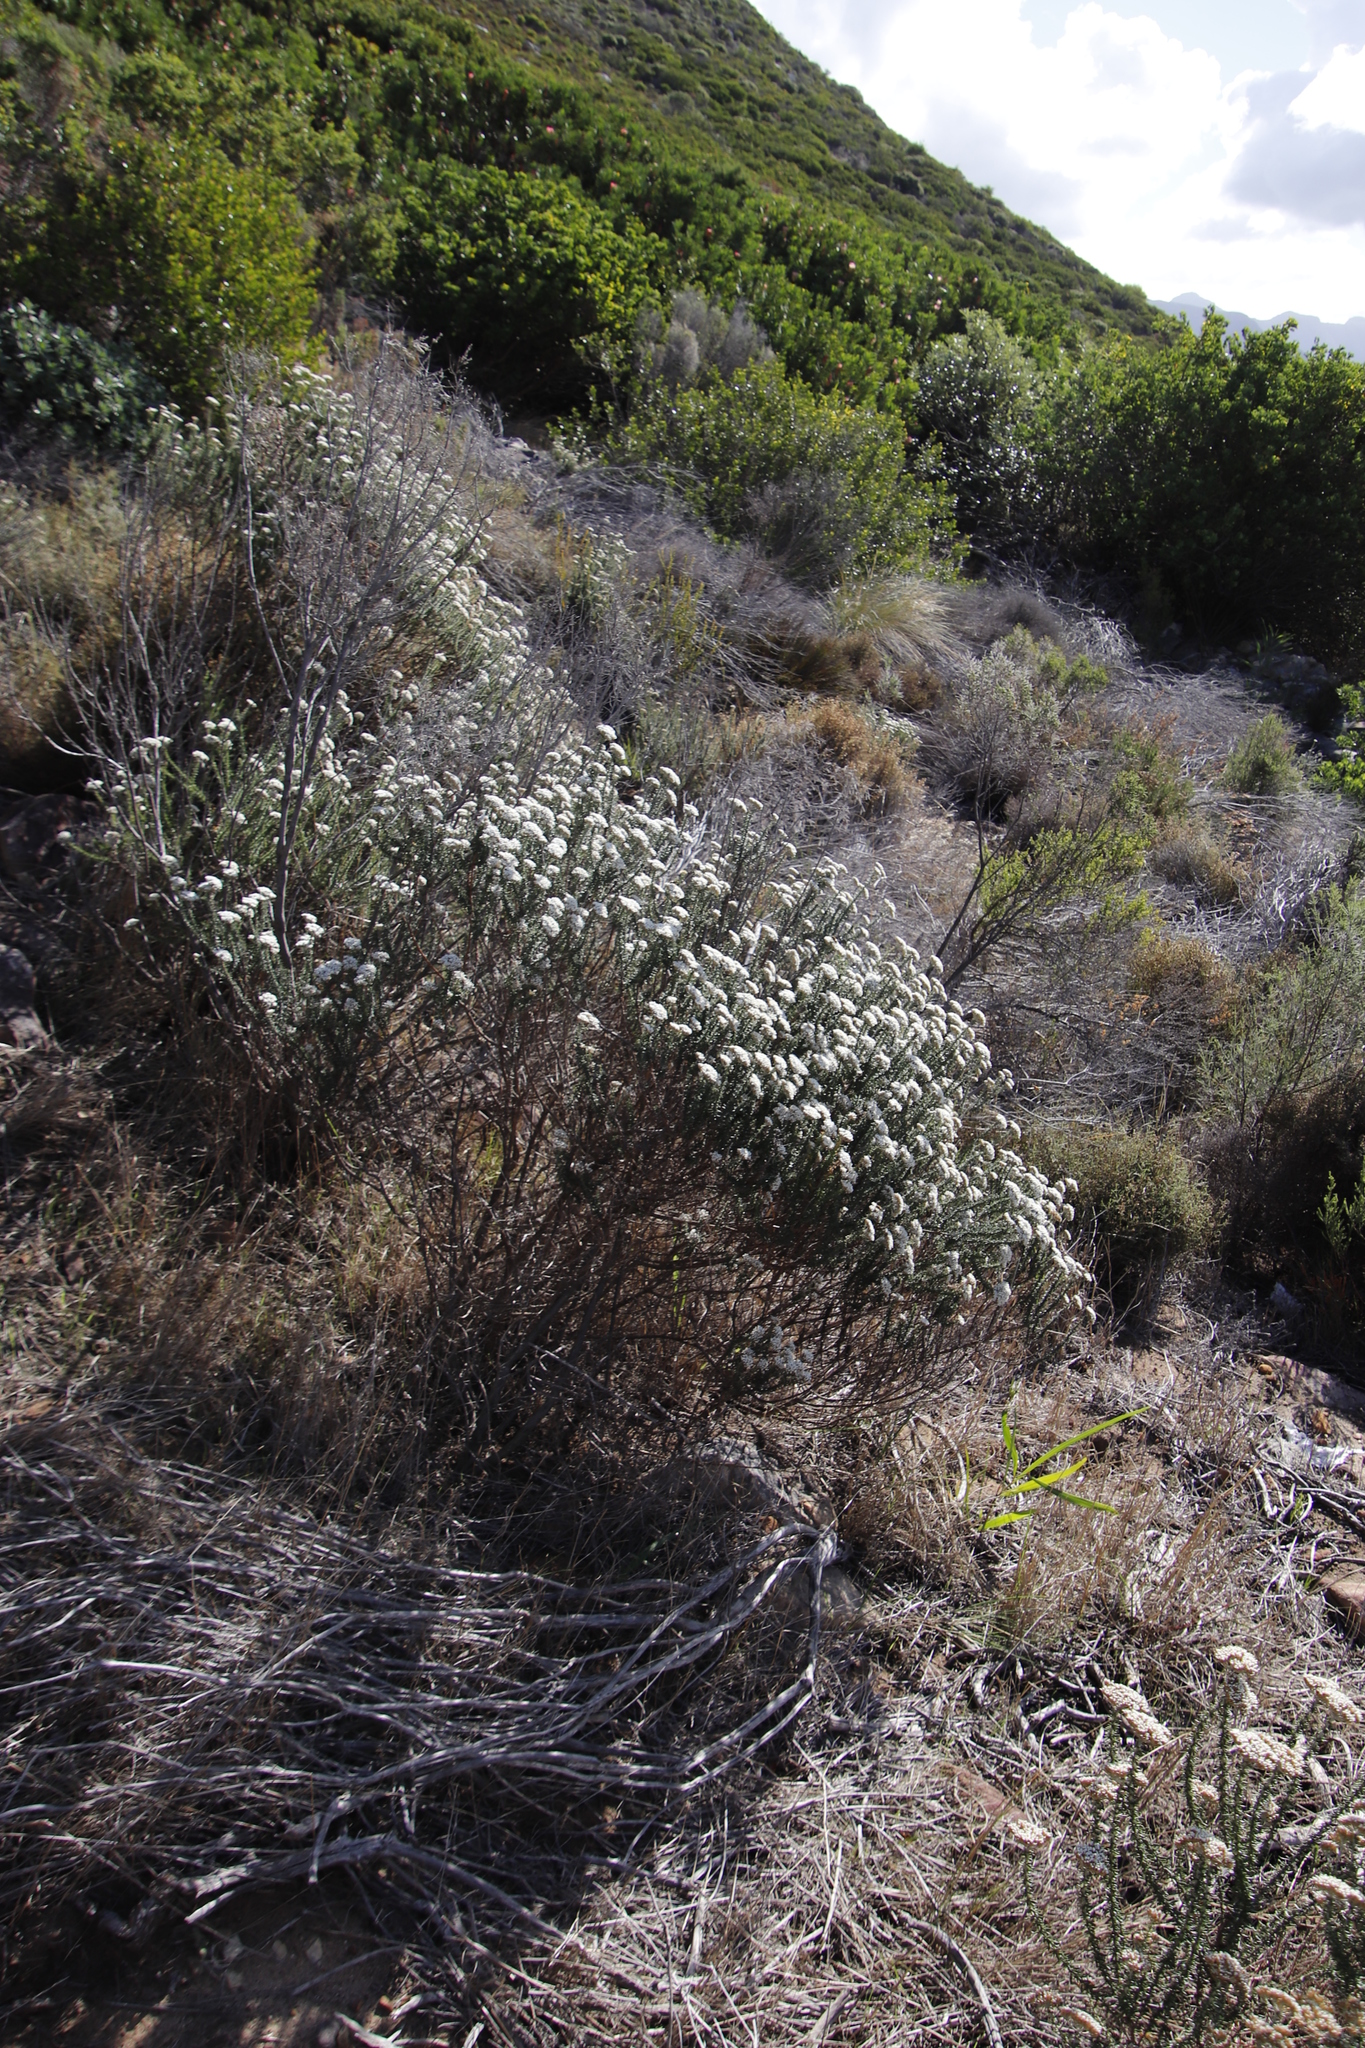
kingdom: Plantae
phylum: Tracheophyta
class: Magnoliopsida
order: Asterales
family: Asteraceae
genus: Metalasia
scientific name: Metalasia densa
